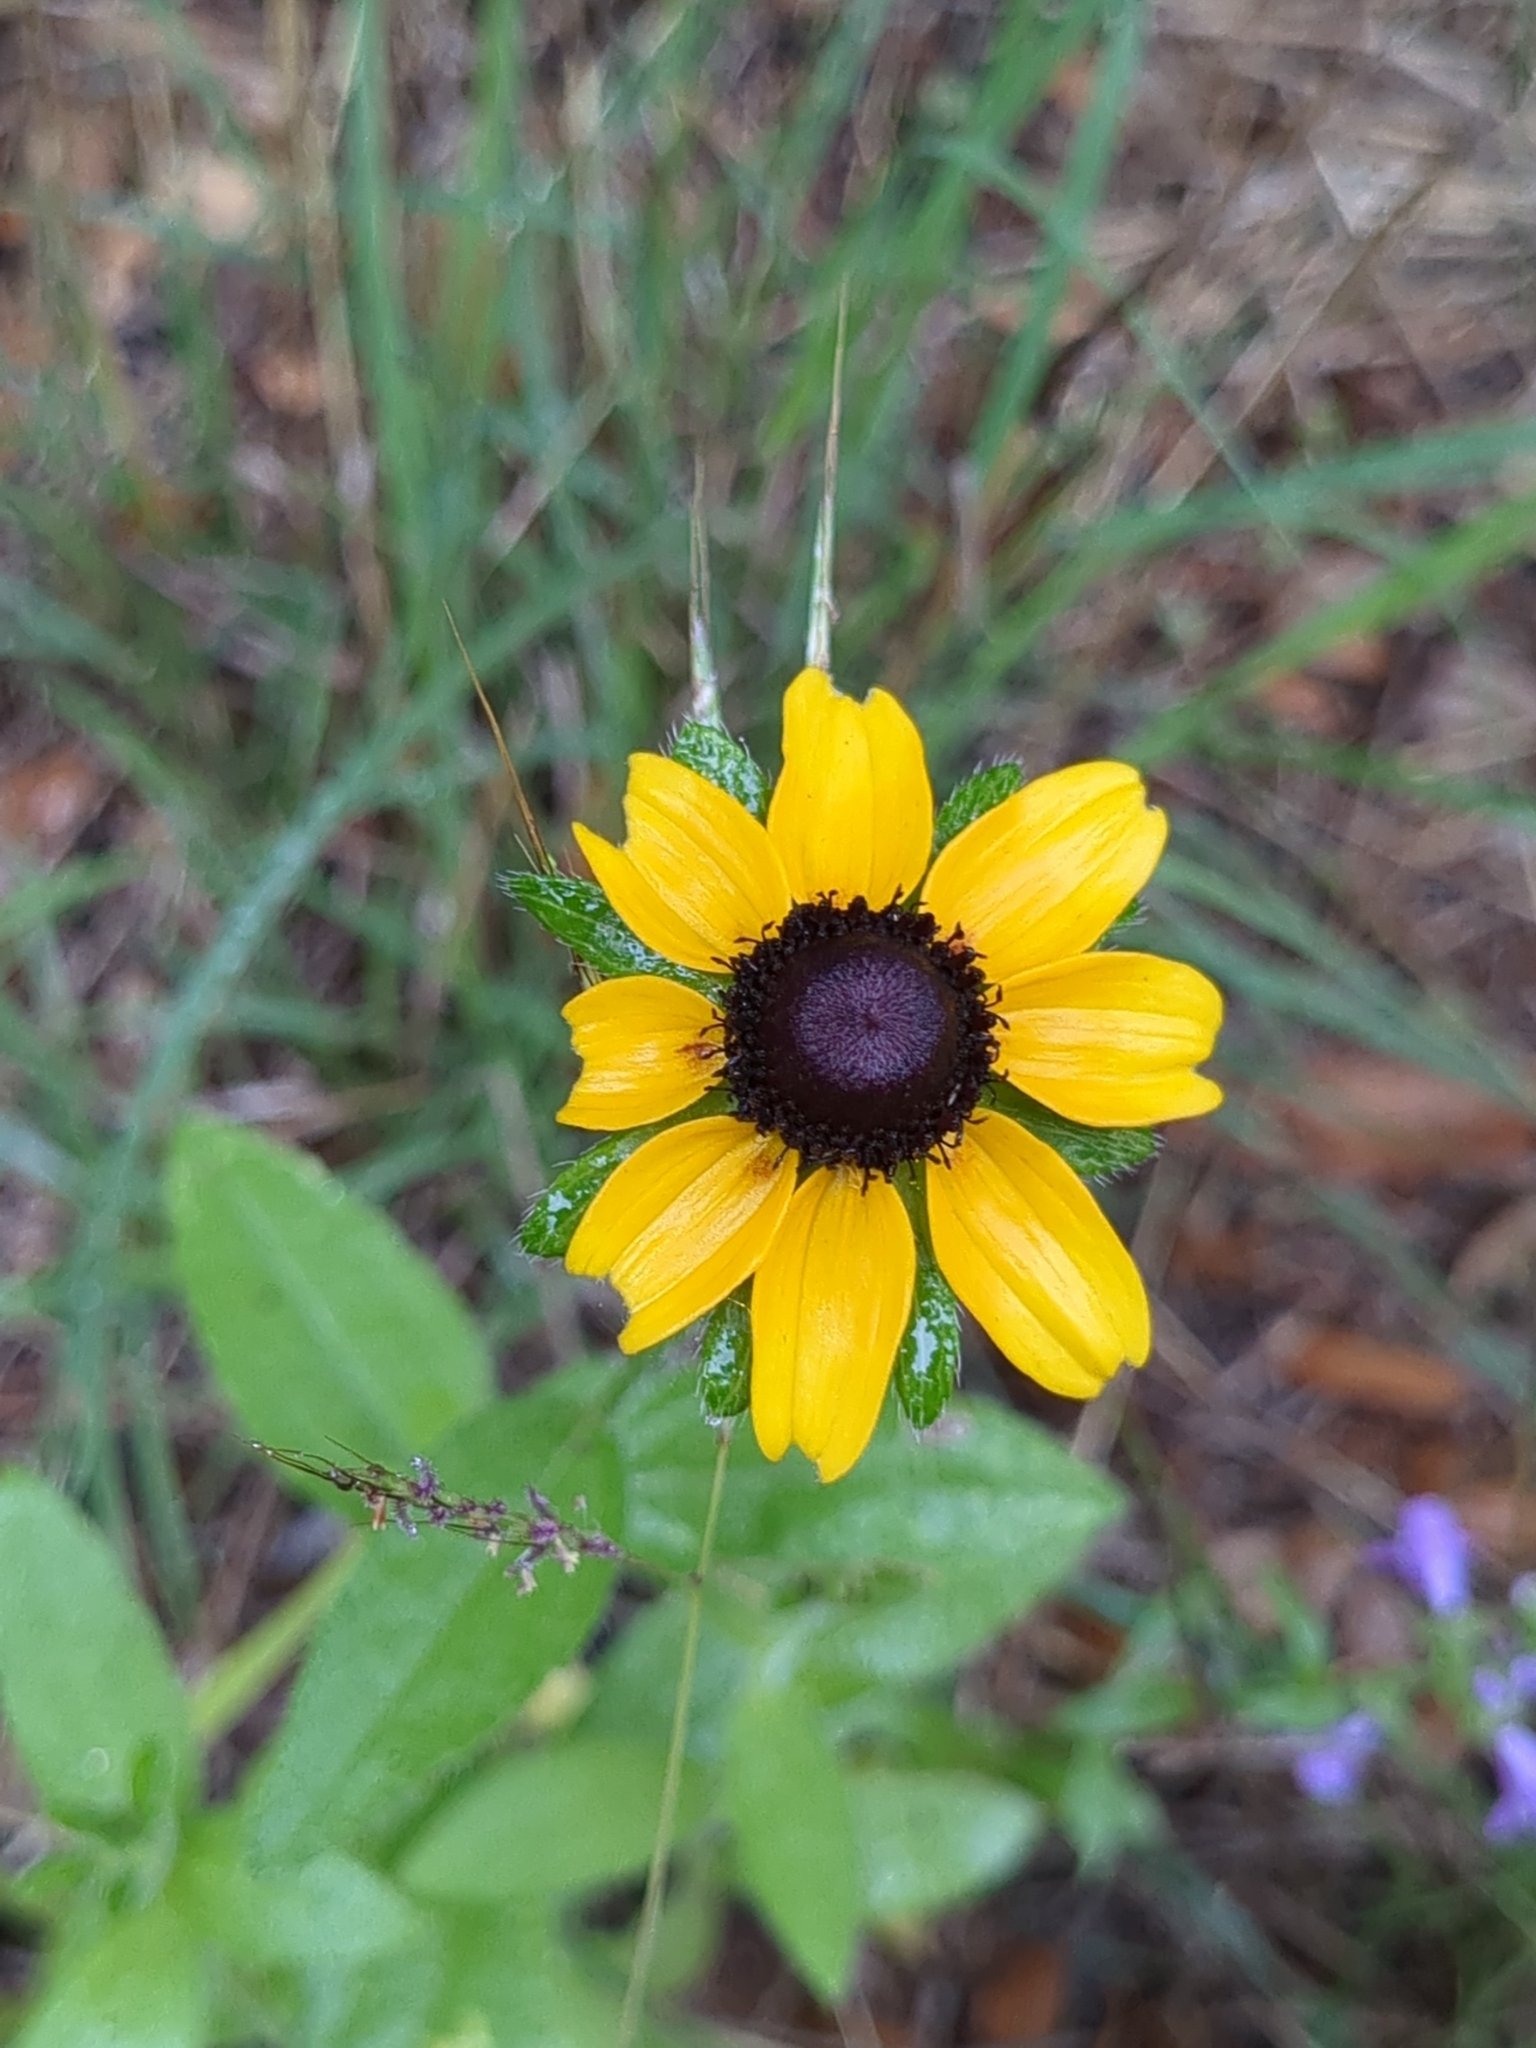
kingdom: Plantae
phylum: Tracheophyta
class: Magnoliopsida
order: Asterales
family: Asteraceae
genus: Rudbeckia
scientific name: Rudbeckia hirta
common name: Black-eyed-susan
